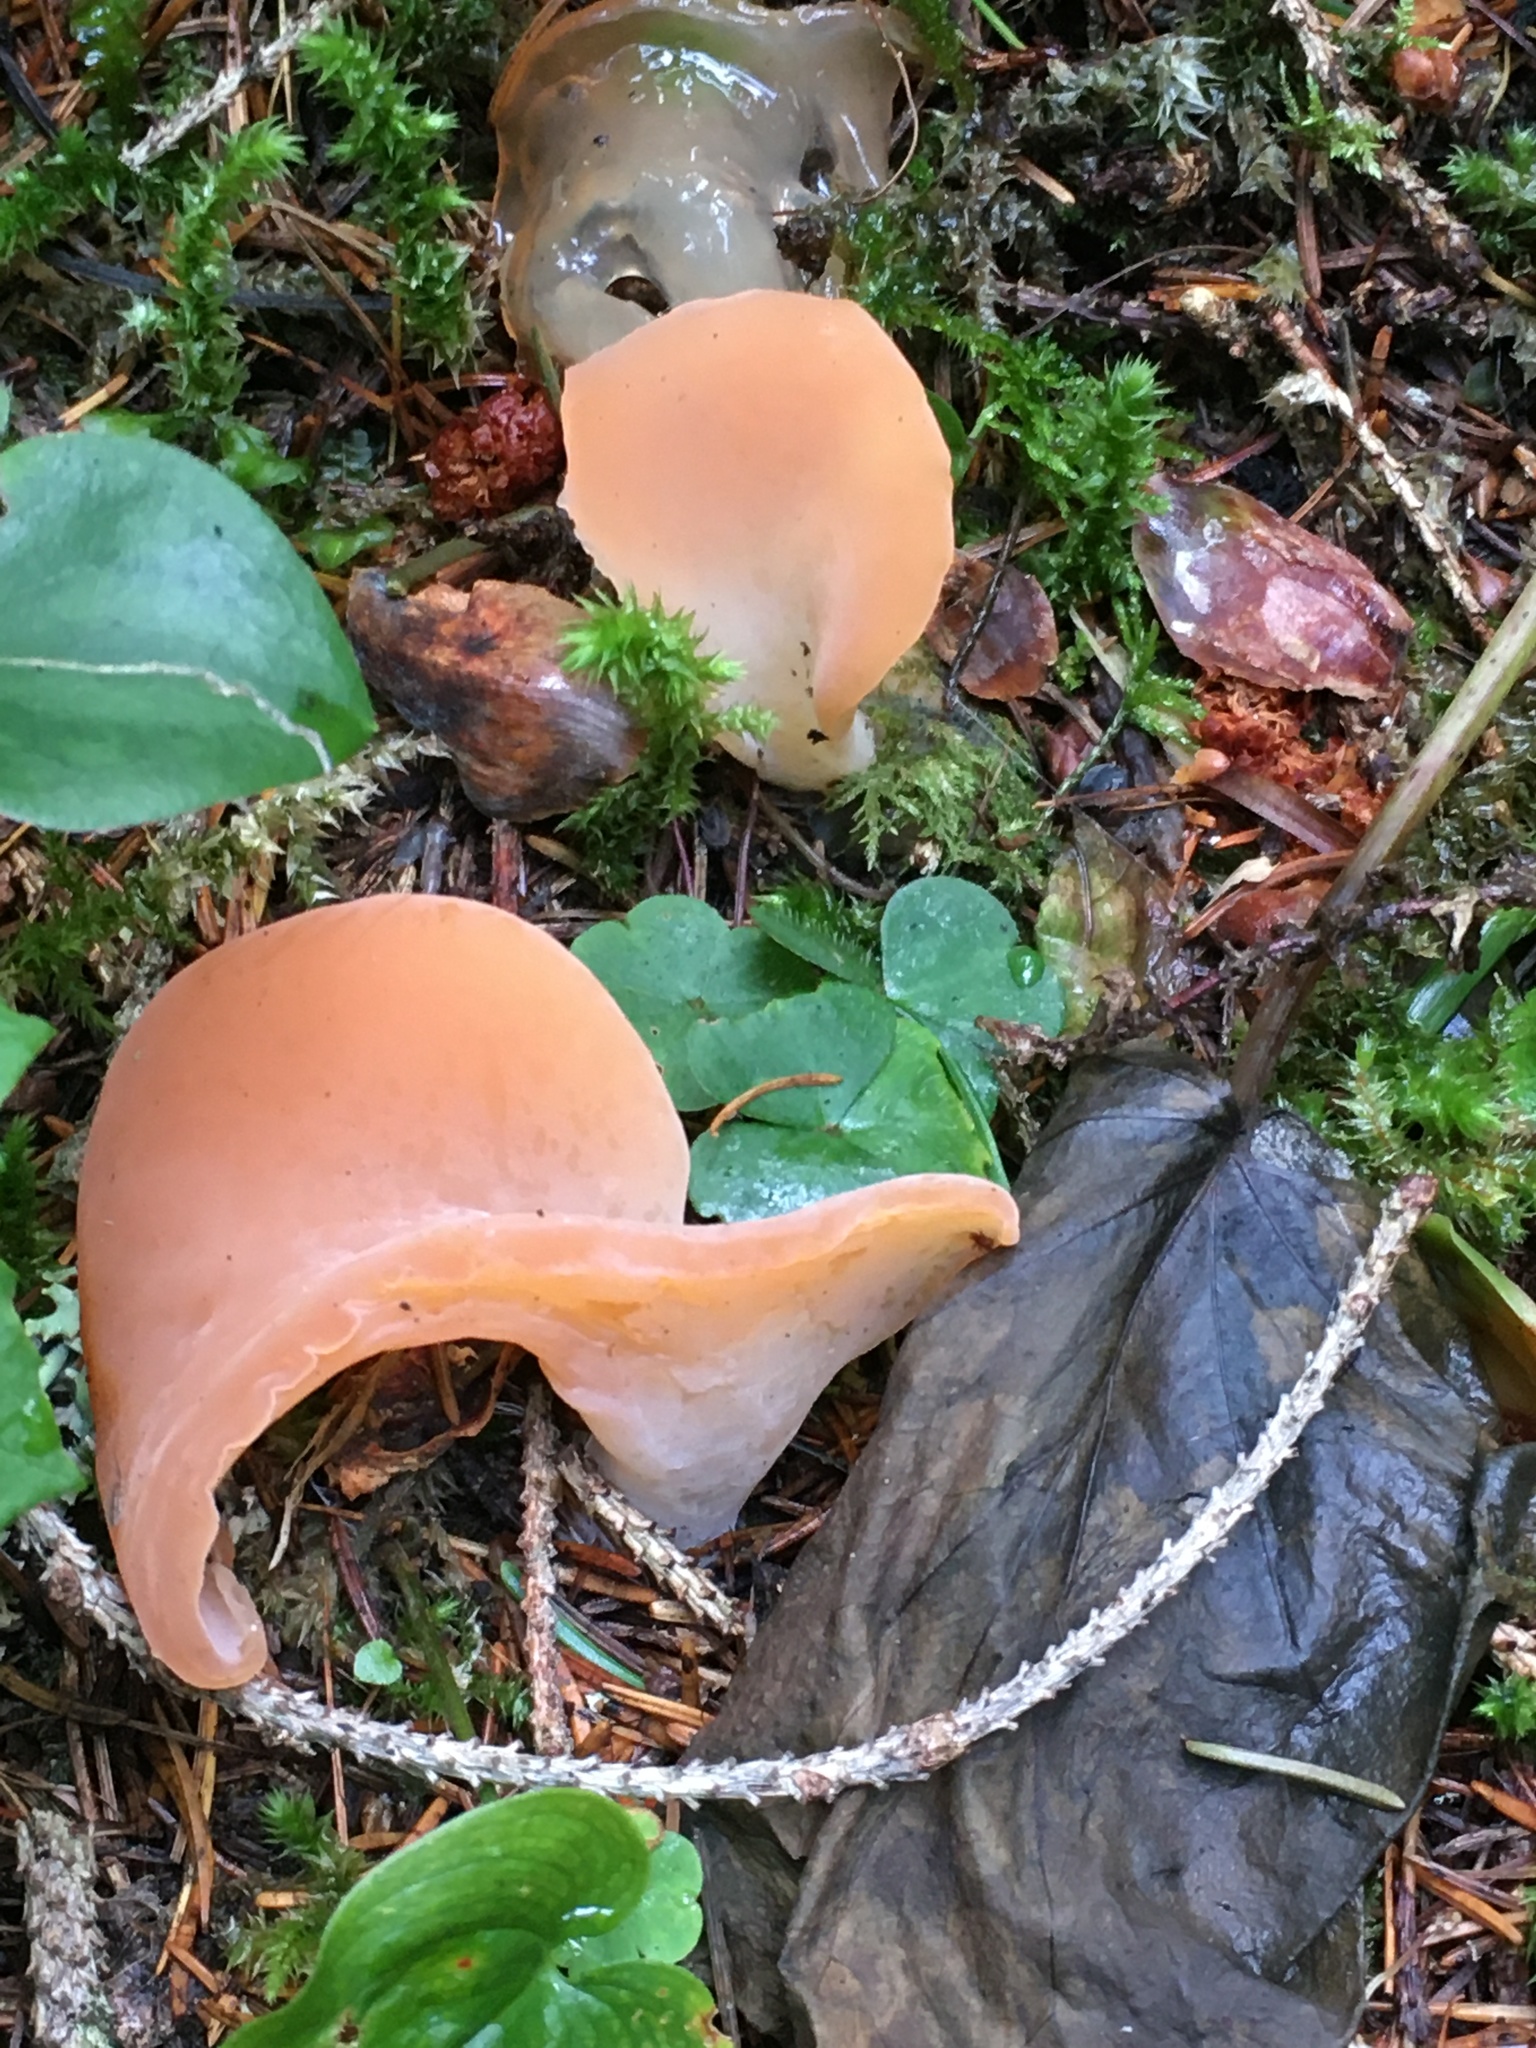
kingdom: Fungi
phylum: Basidiomycota
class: Agaricomycetes
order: Auriculariales
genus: Guepinia
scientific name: Guepinia helvelloides
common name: Salmon salad
